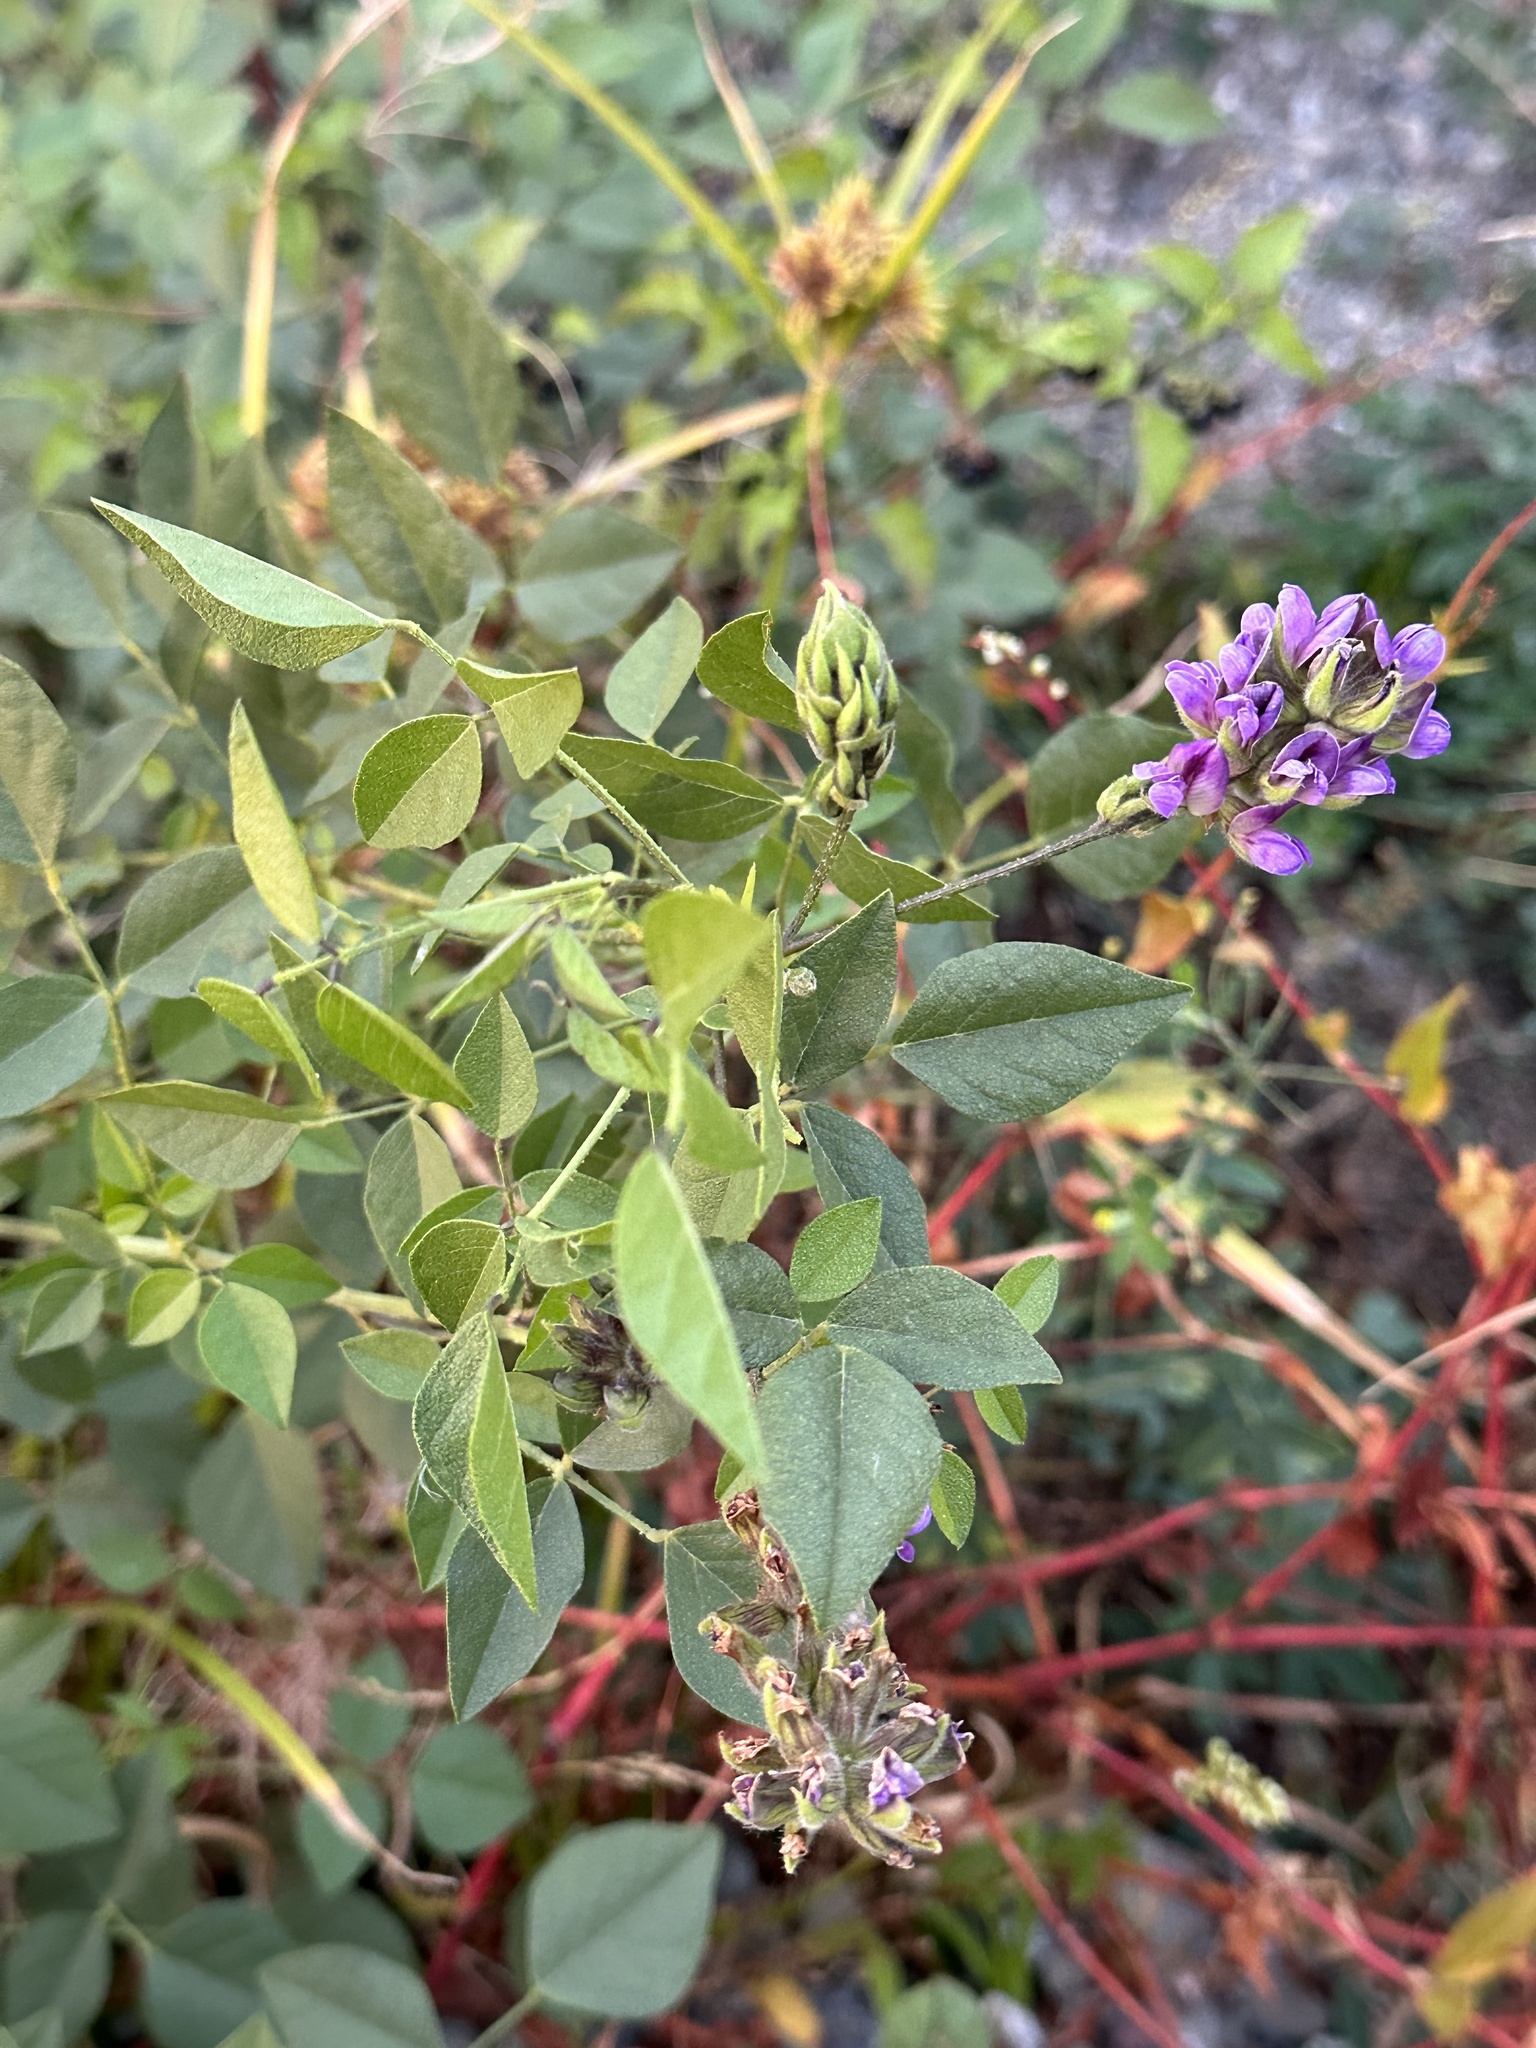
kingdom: Plantae
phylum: Tracheophyta
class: Magnoliopsida
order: Fabales
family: Fabaceae
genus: Hoita
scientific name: Hoita macrostachya
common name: Leatherroot
